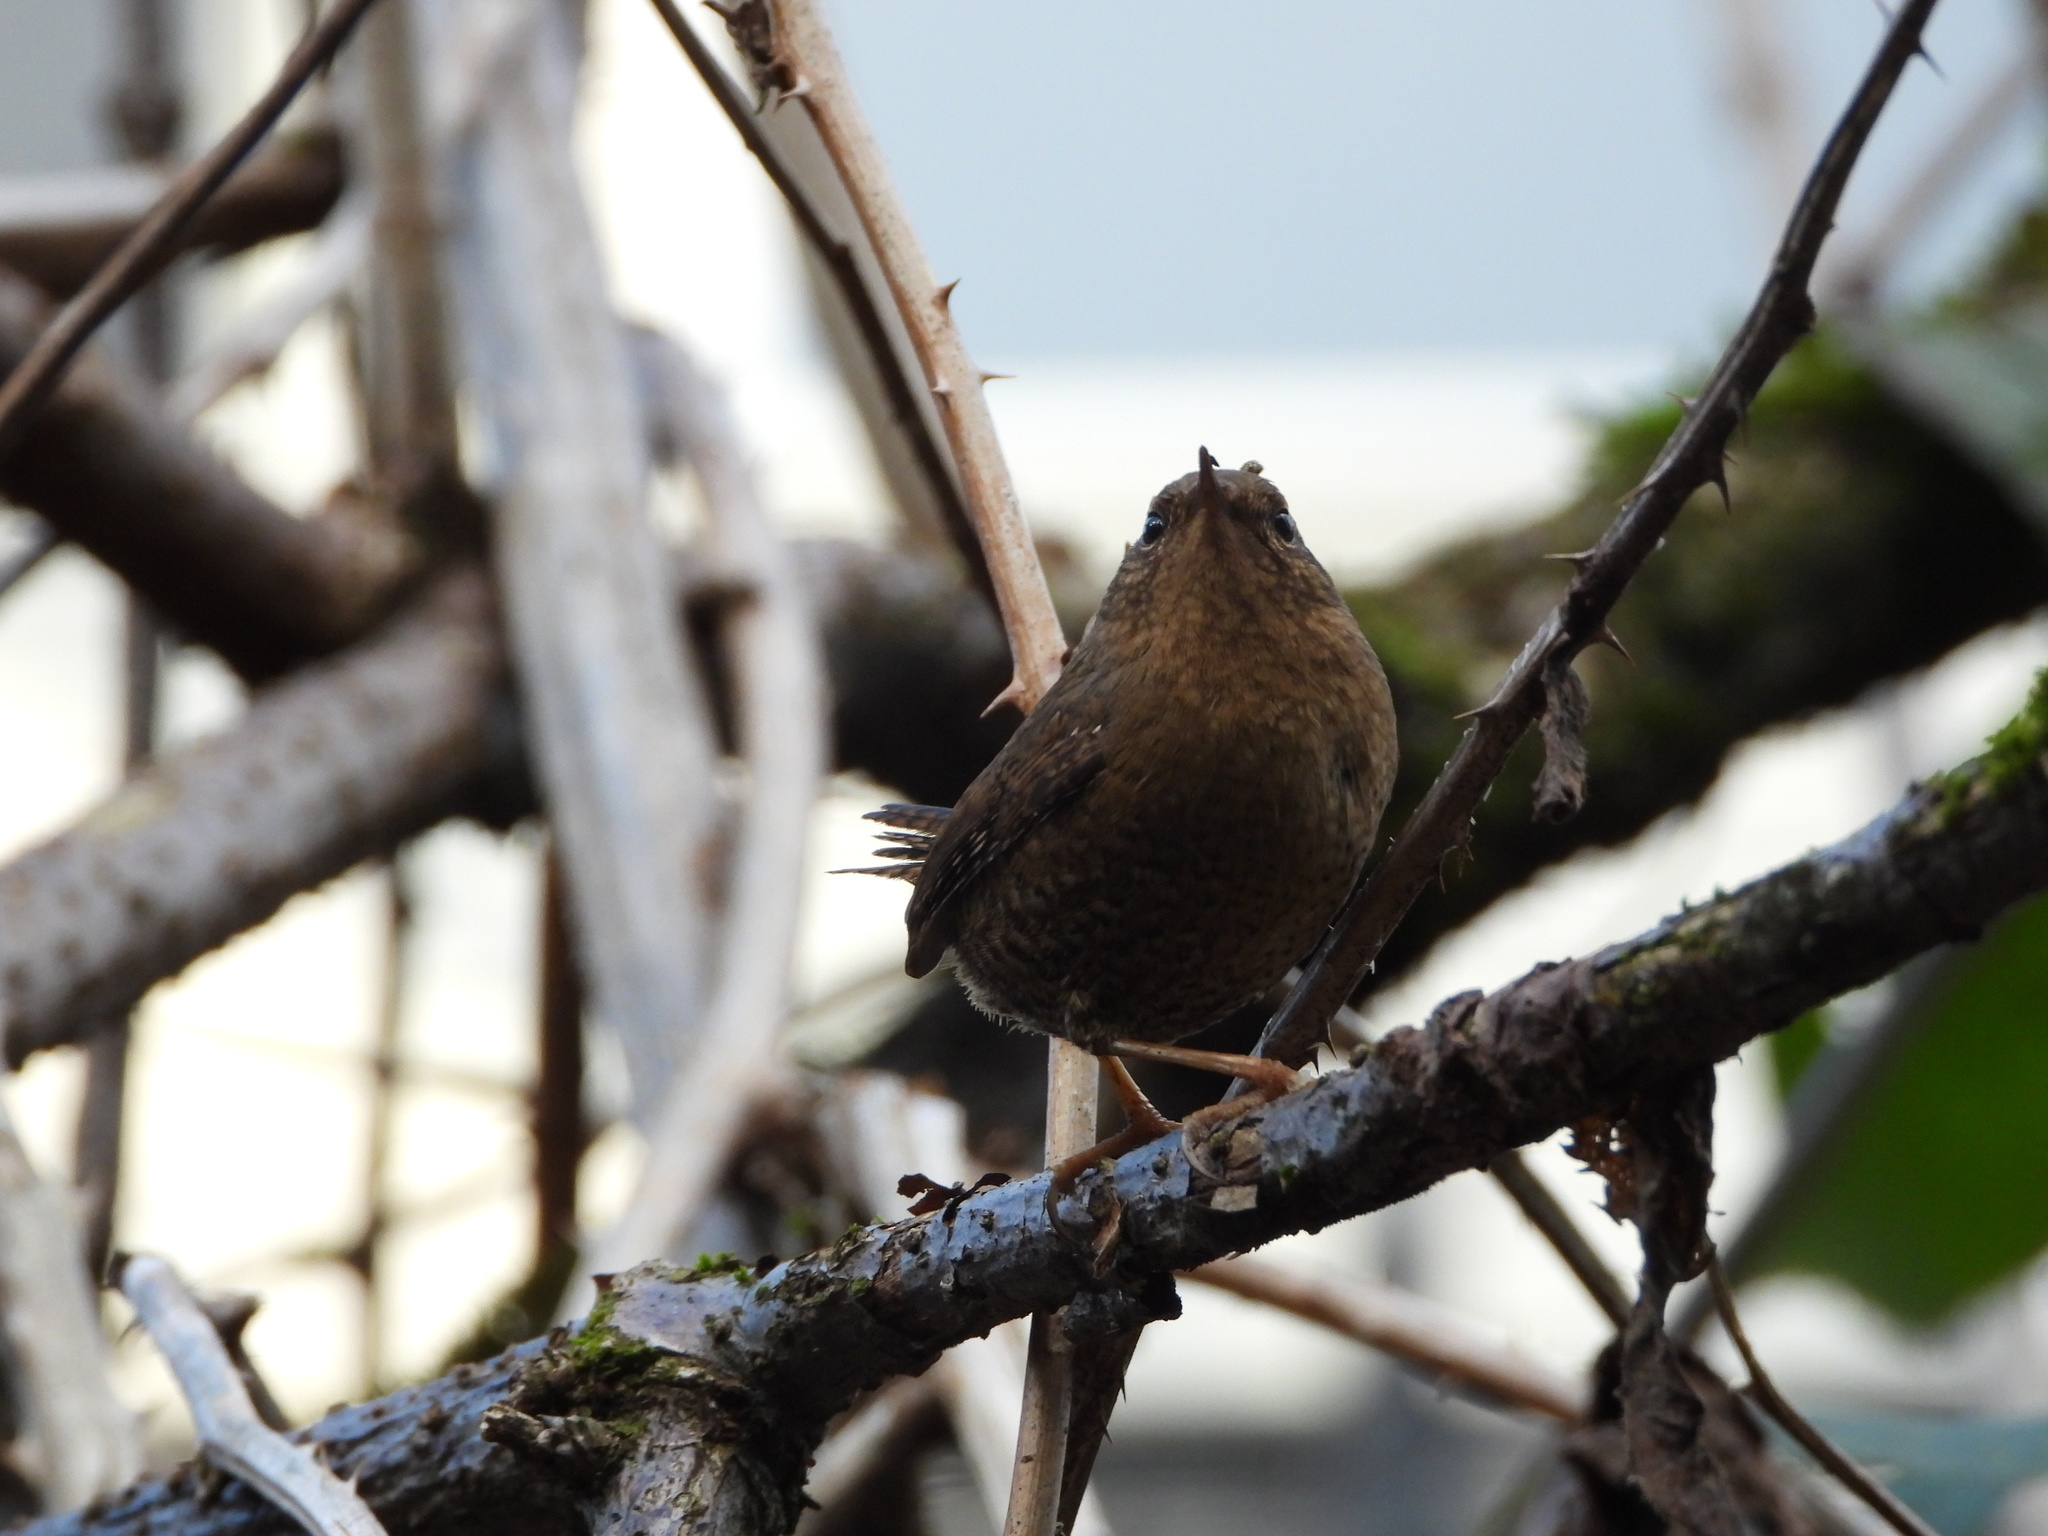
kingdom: Animalia
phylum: Chordata
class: Aves
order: Passeriformes
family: Troglodytidae
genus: Troglodytes
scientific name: Troglodytes pacificus
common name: Pacific wren
